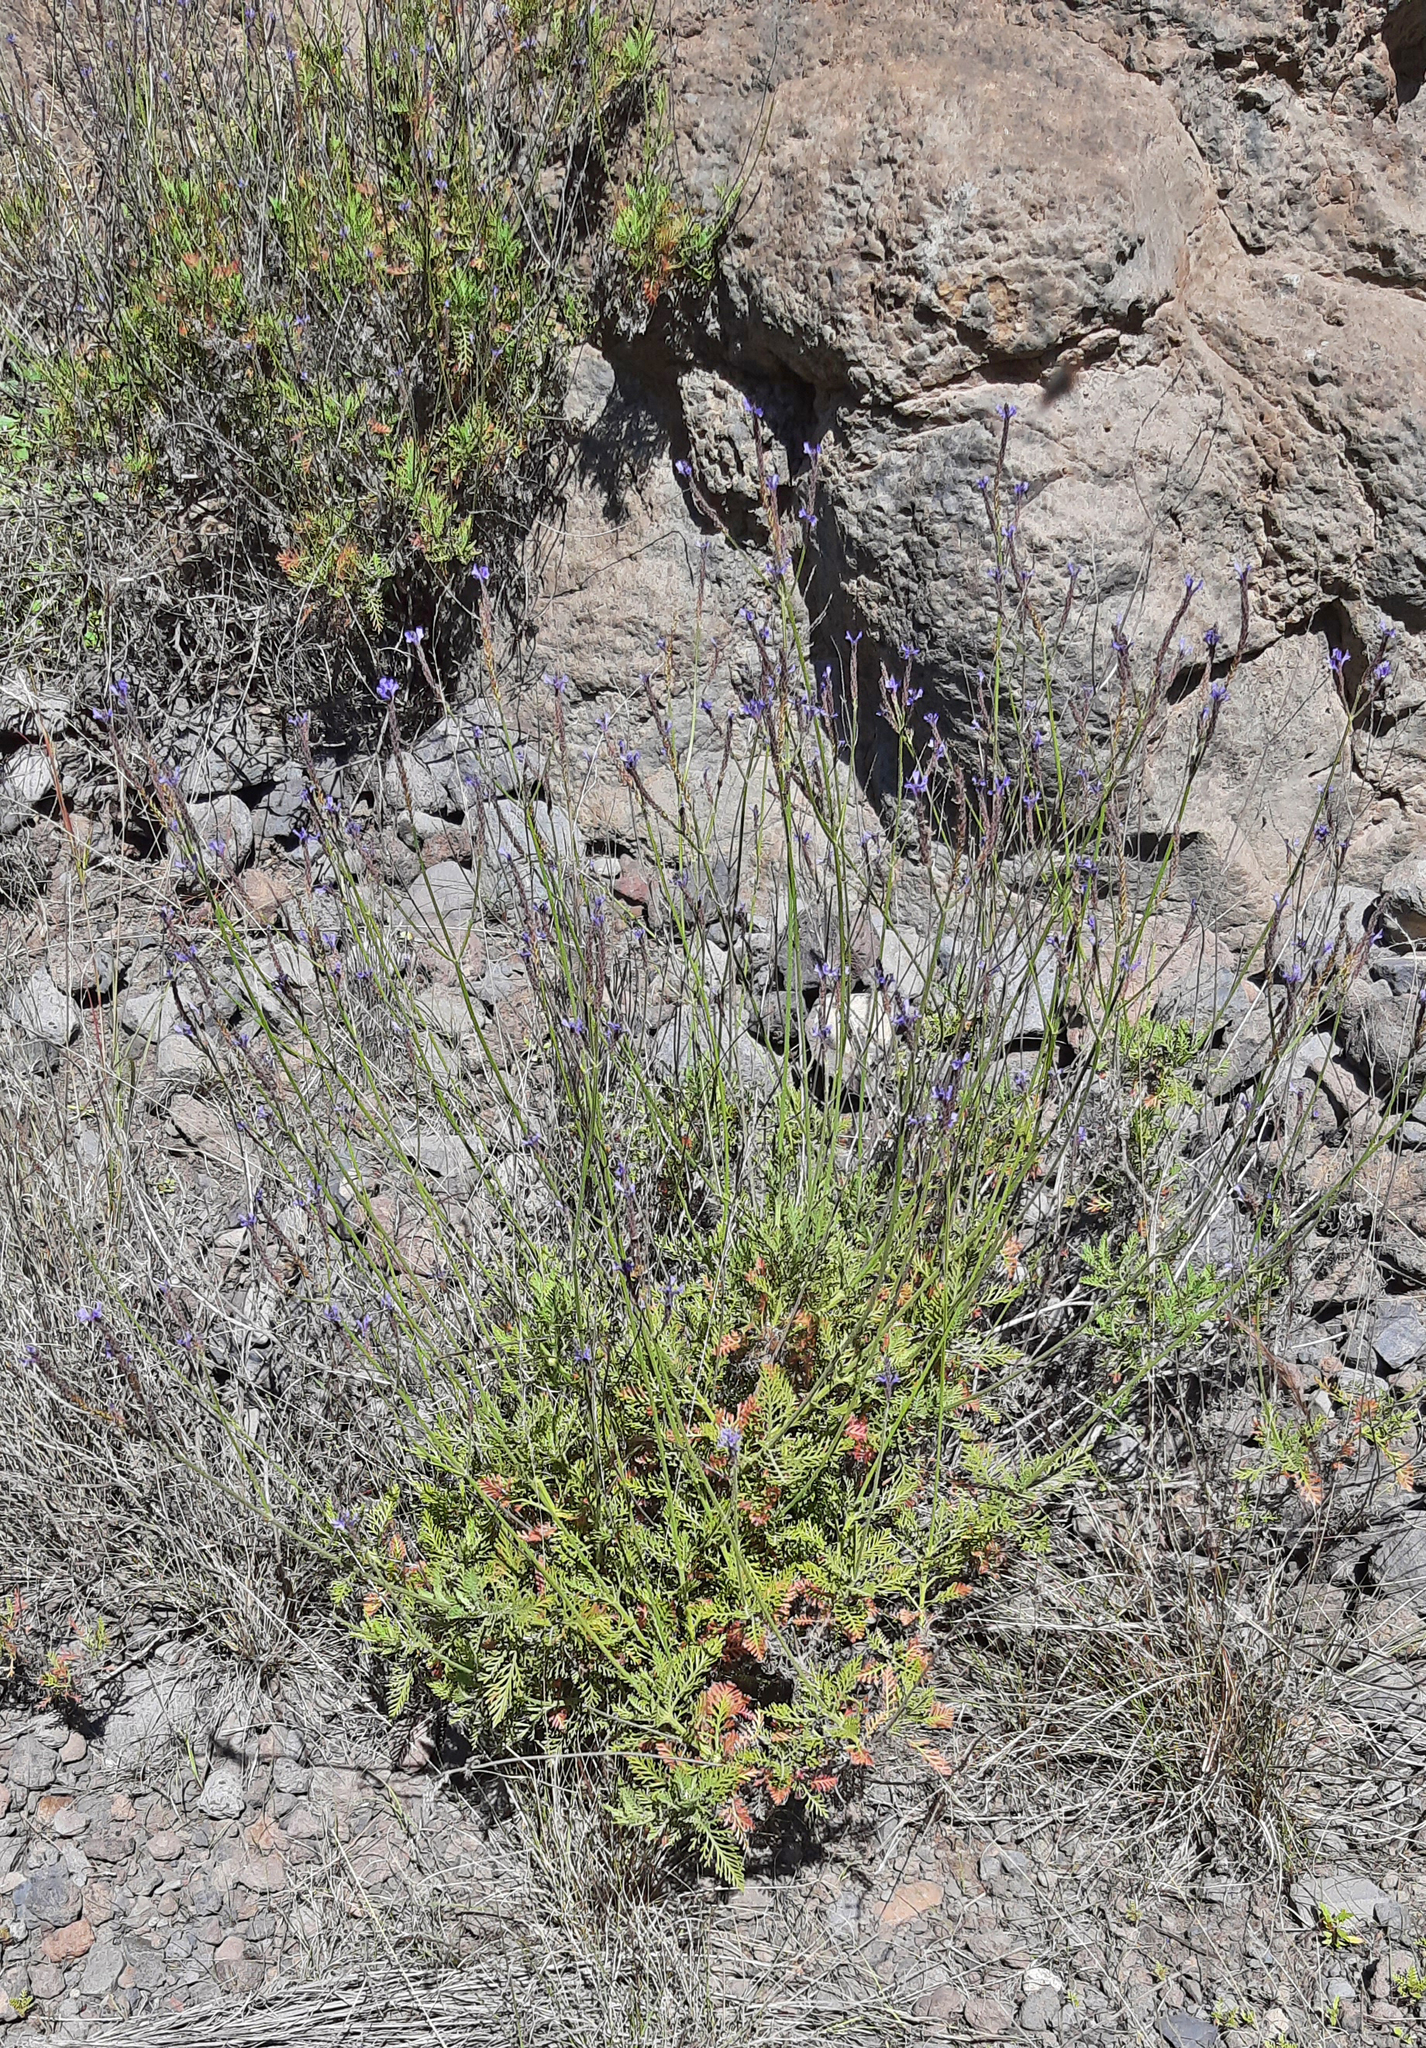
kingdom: Plantae
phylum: Tracheophyta
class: Magnoliopsida
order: Lamiales
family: Lamiaceae
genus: Lavandula
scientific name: Lavandula canariensis
